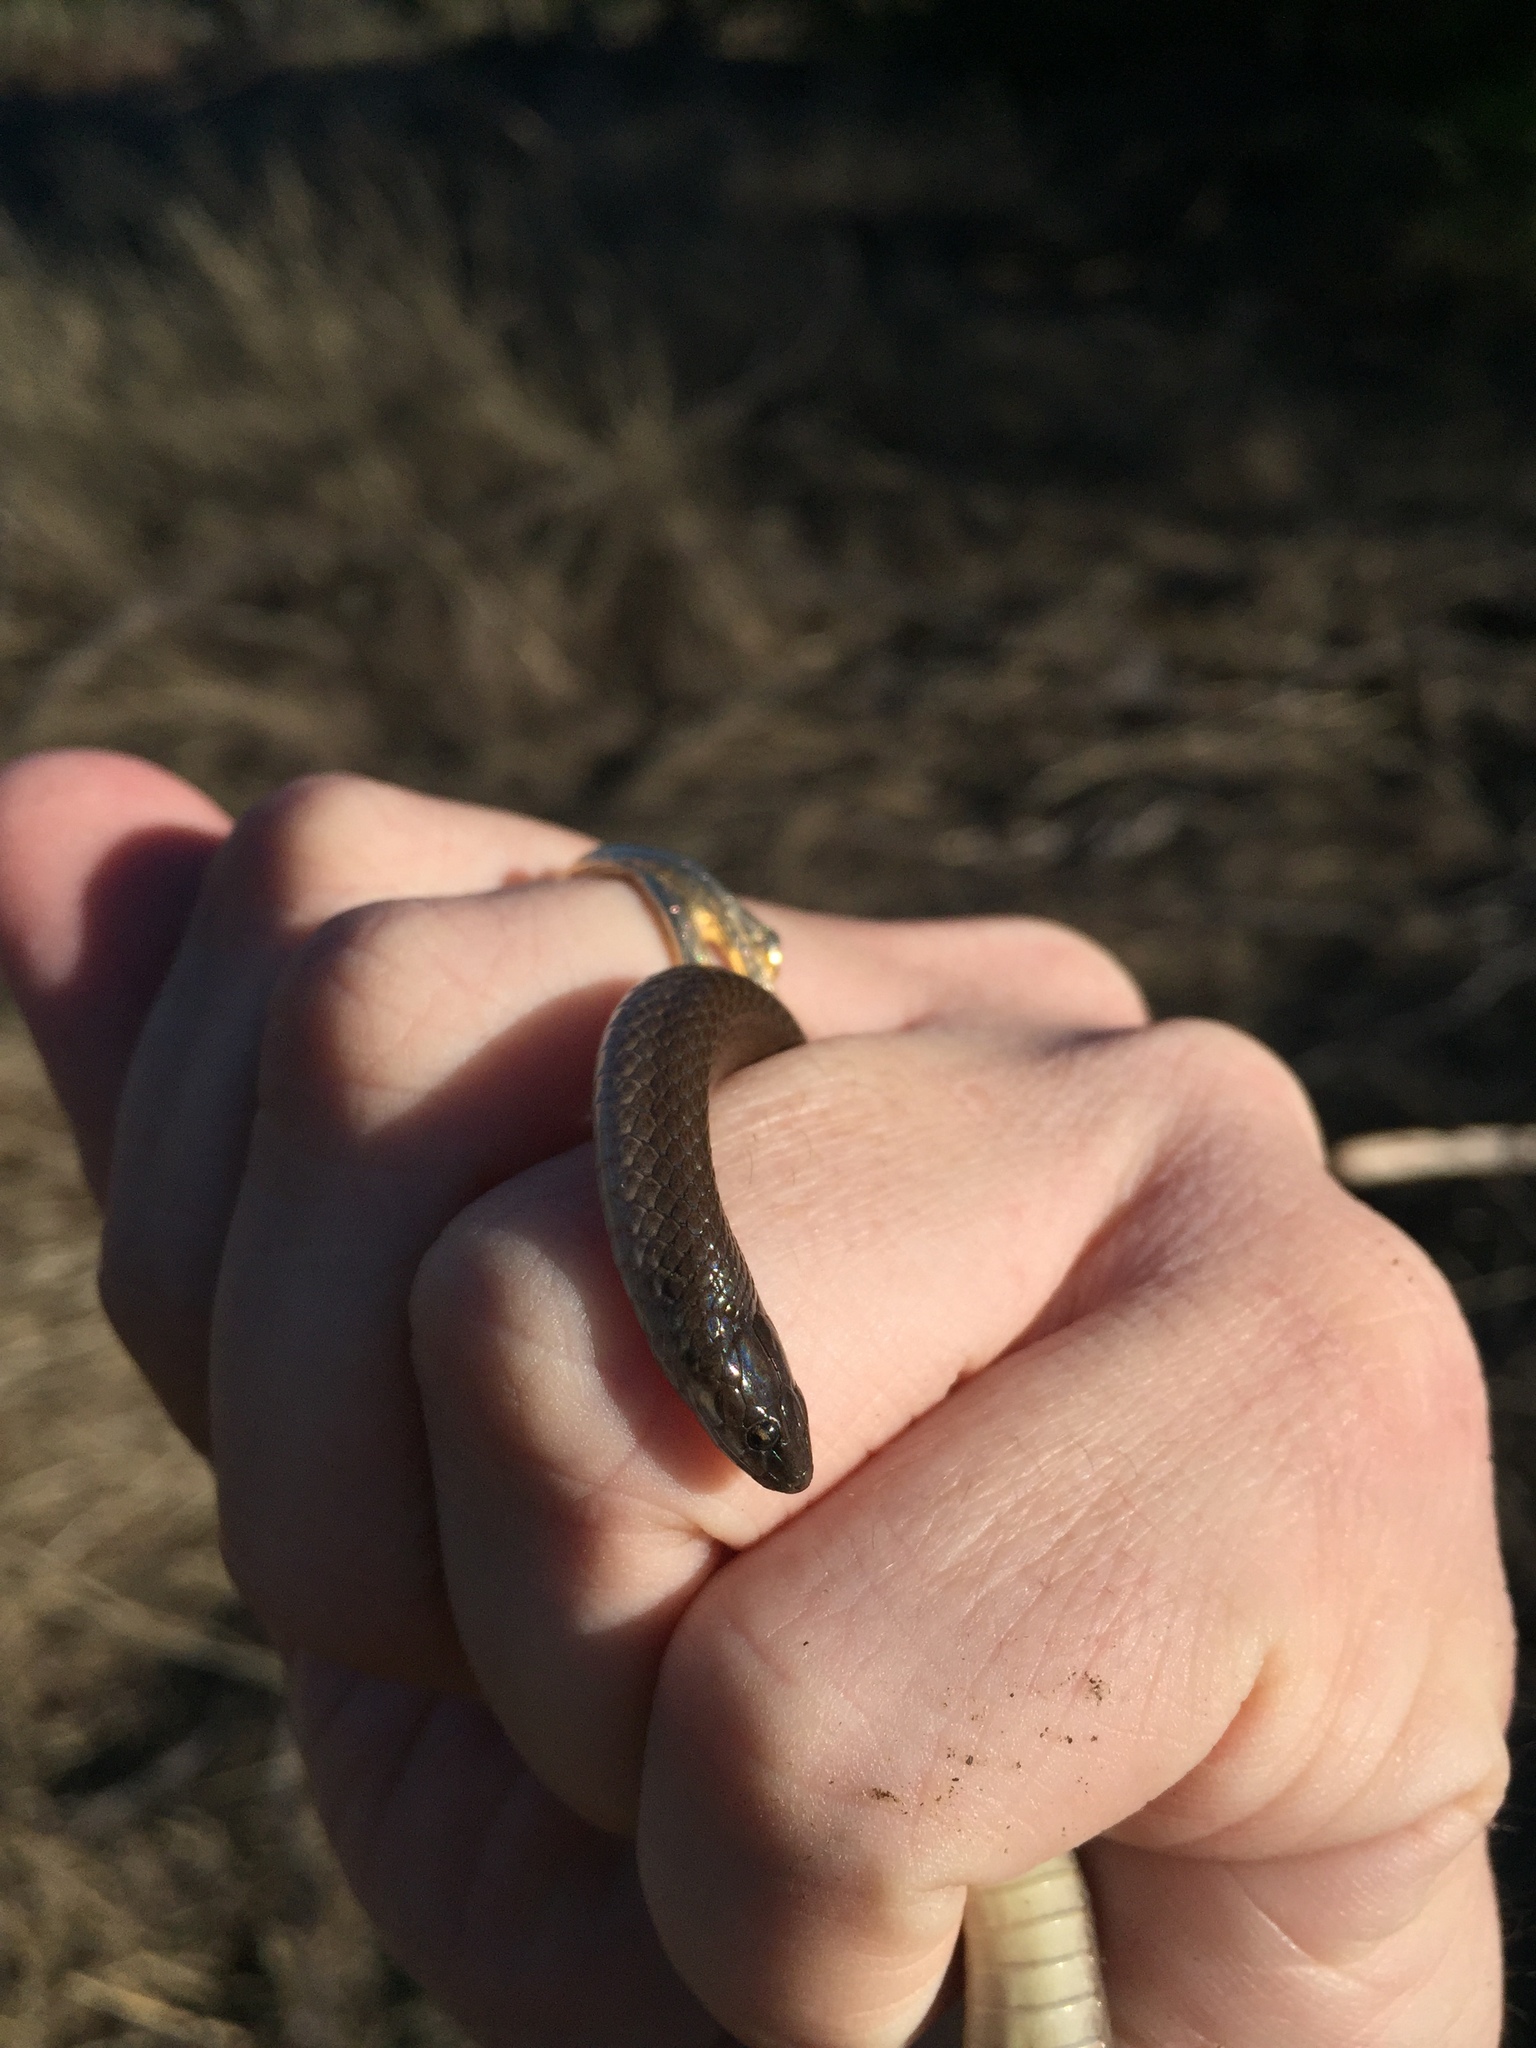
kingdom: Animalia
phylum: Chordata
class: Squamata
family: Colubridae
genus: Haldea
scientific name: Haldea striatula
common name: Rough earth snake
